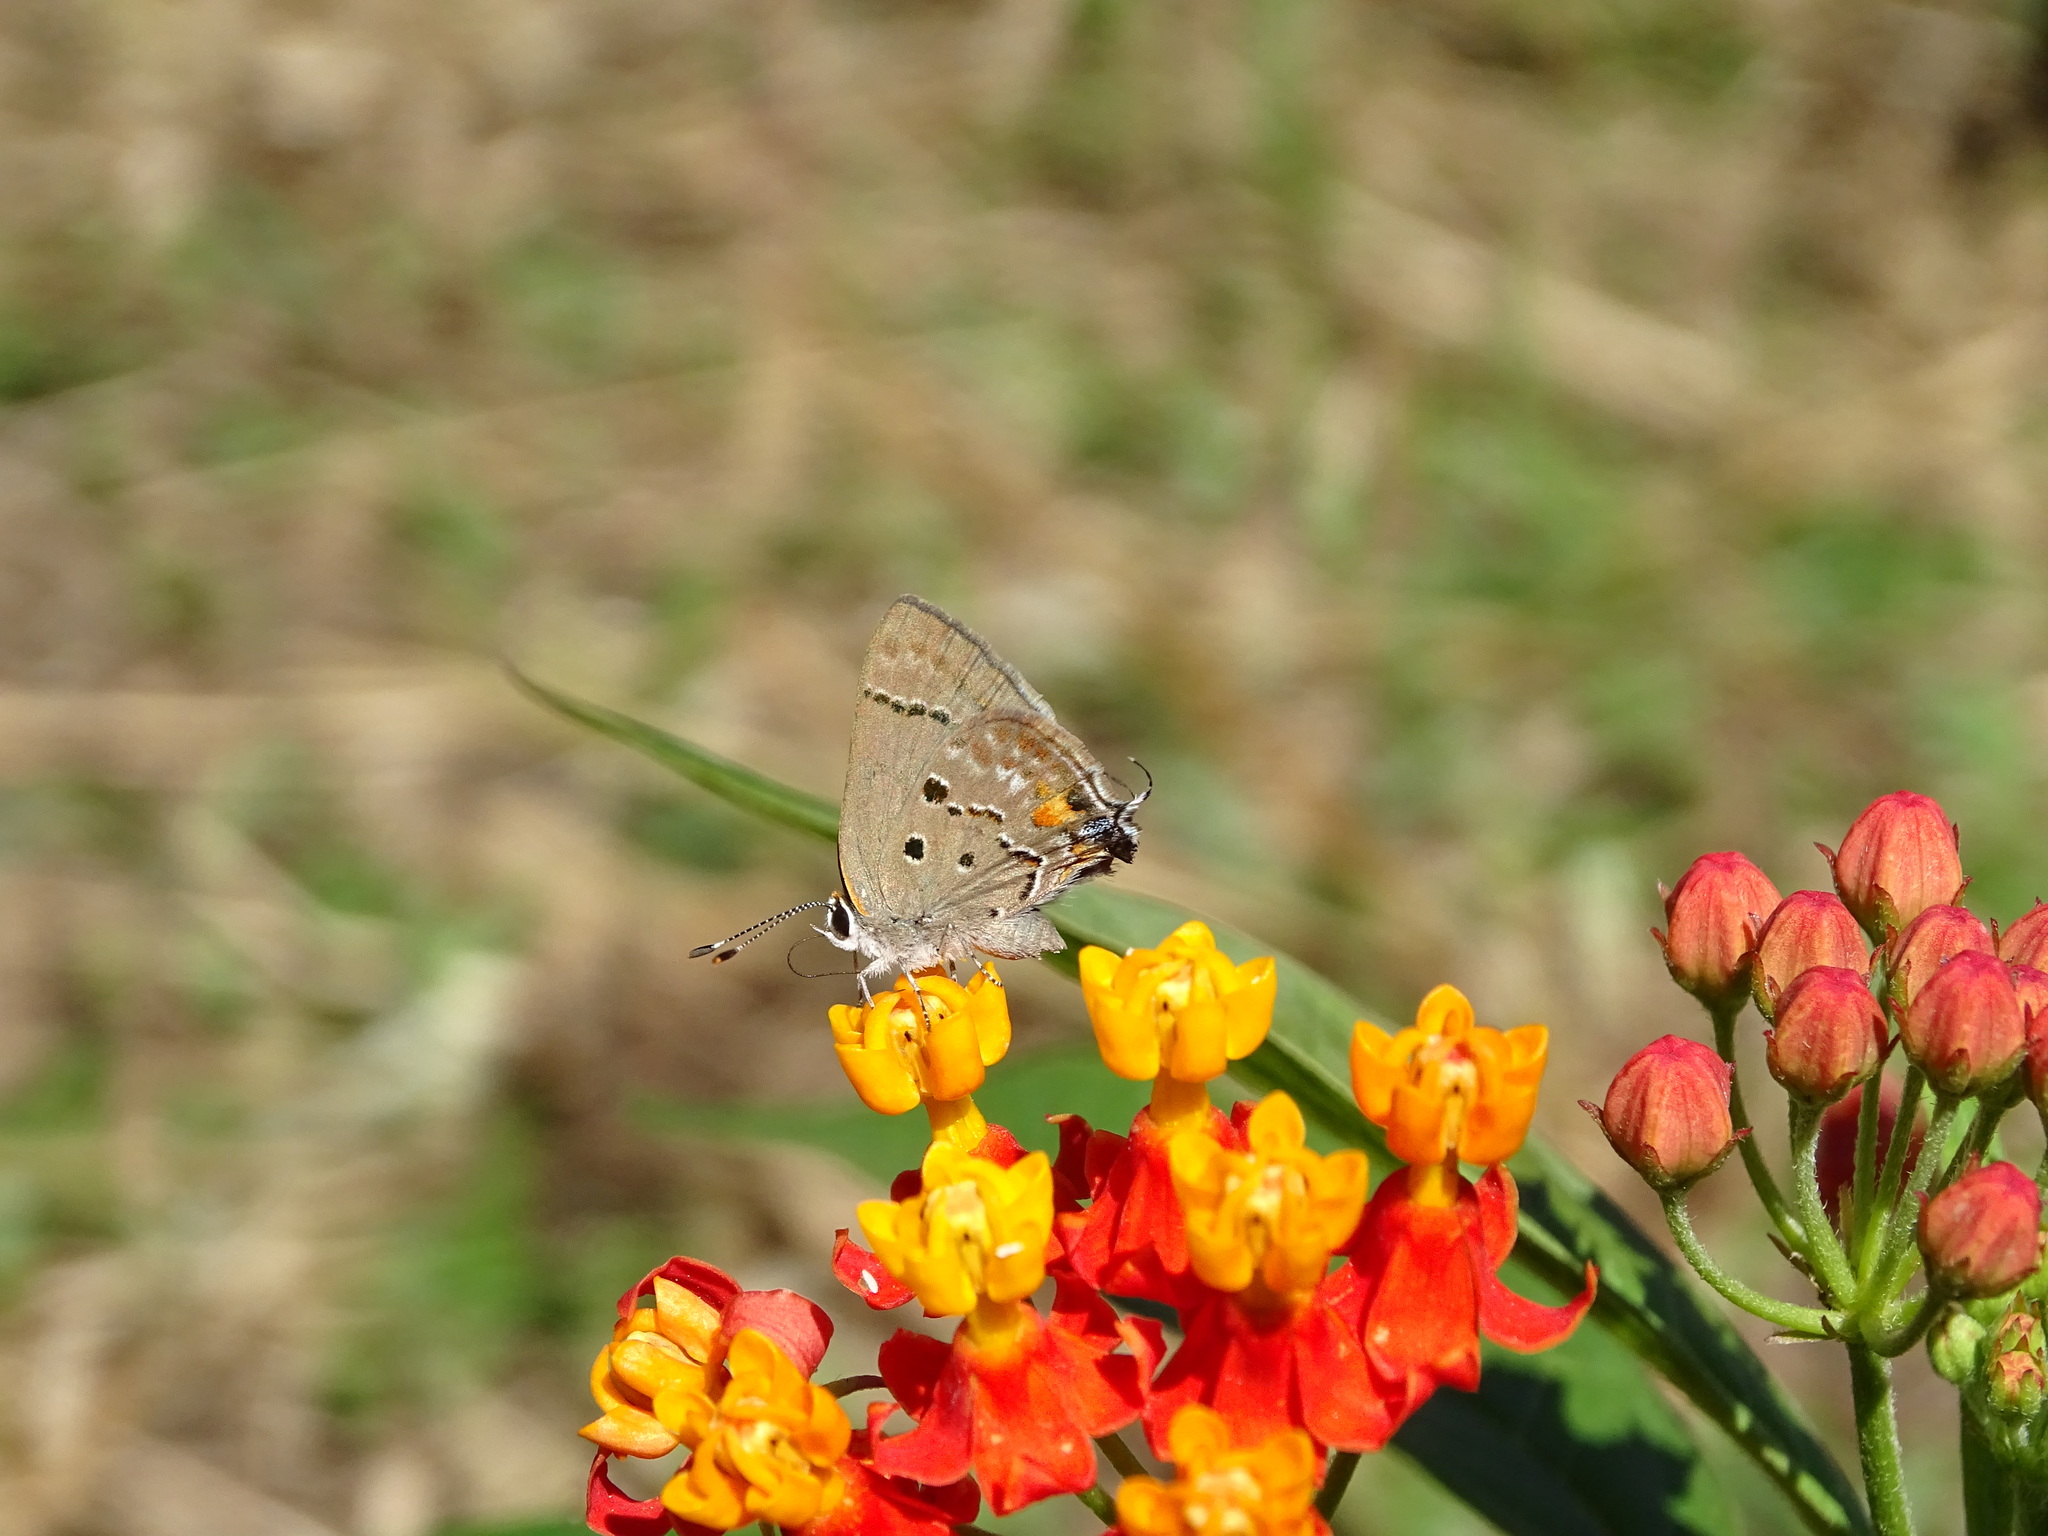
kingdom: Animalia
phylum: Arthropoda
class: Insecta
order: Lepidoptera
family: Lycaenidae
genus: Thecla
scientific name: Thecla limenia
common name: Hairstreak moth
